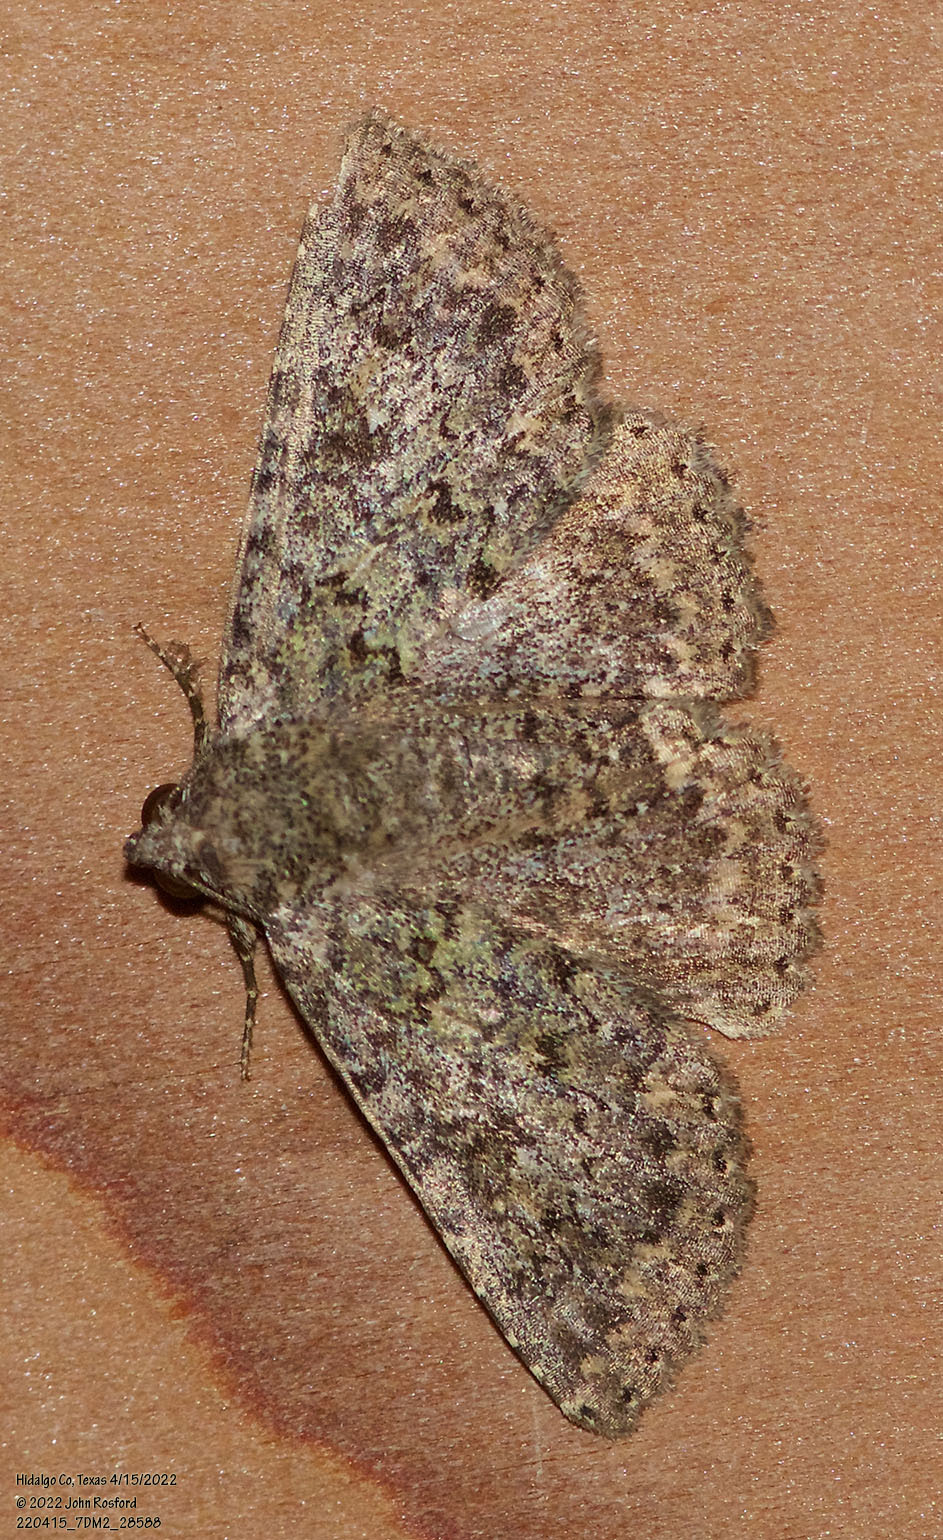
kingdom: Animalia
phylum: Arthropoda
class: Insecta
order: Lepidoptera
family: Erebidae
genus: Matigramma
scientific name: Matigramma obscurior
